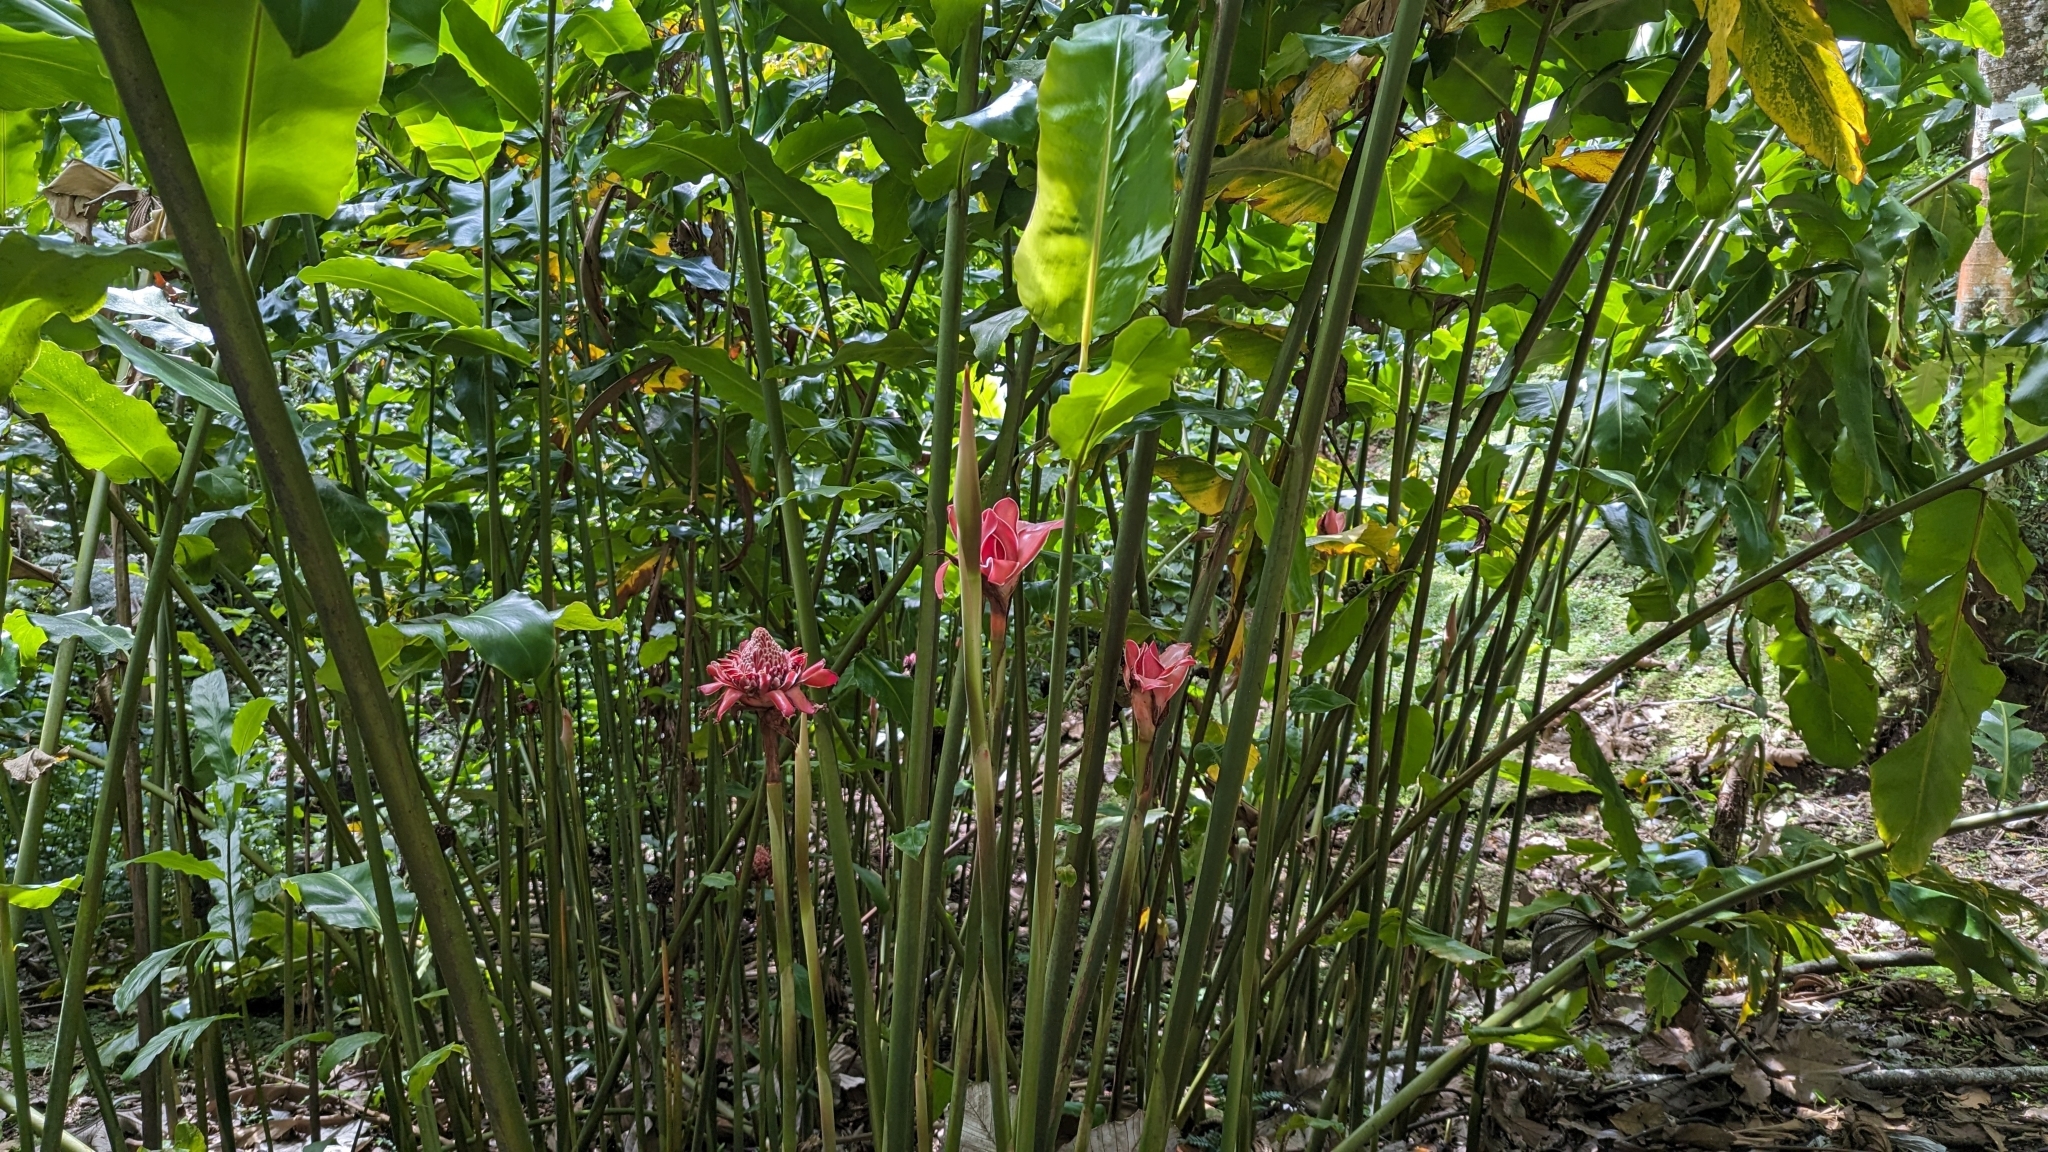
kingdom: Plantae
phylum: Tracheophyta
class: Liliopsida
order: Zingiberales
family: Zingiberaceae
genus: Etlingera
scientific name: Etlingera elatior
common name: Philippine waxflower
